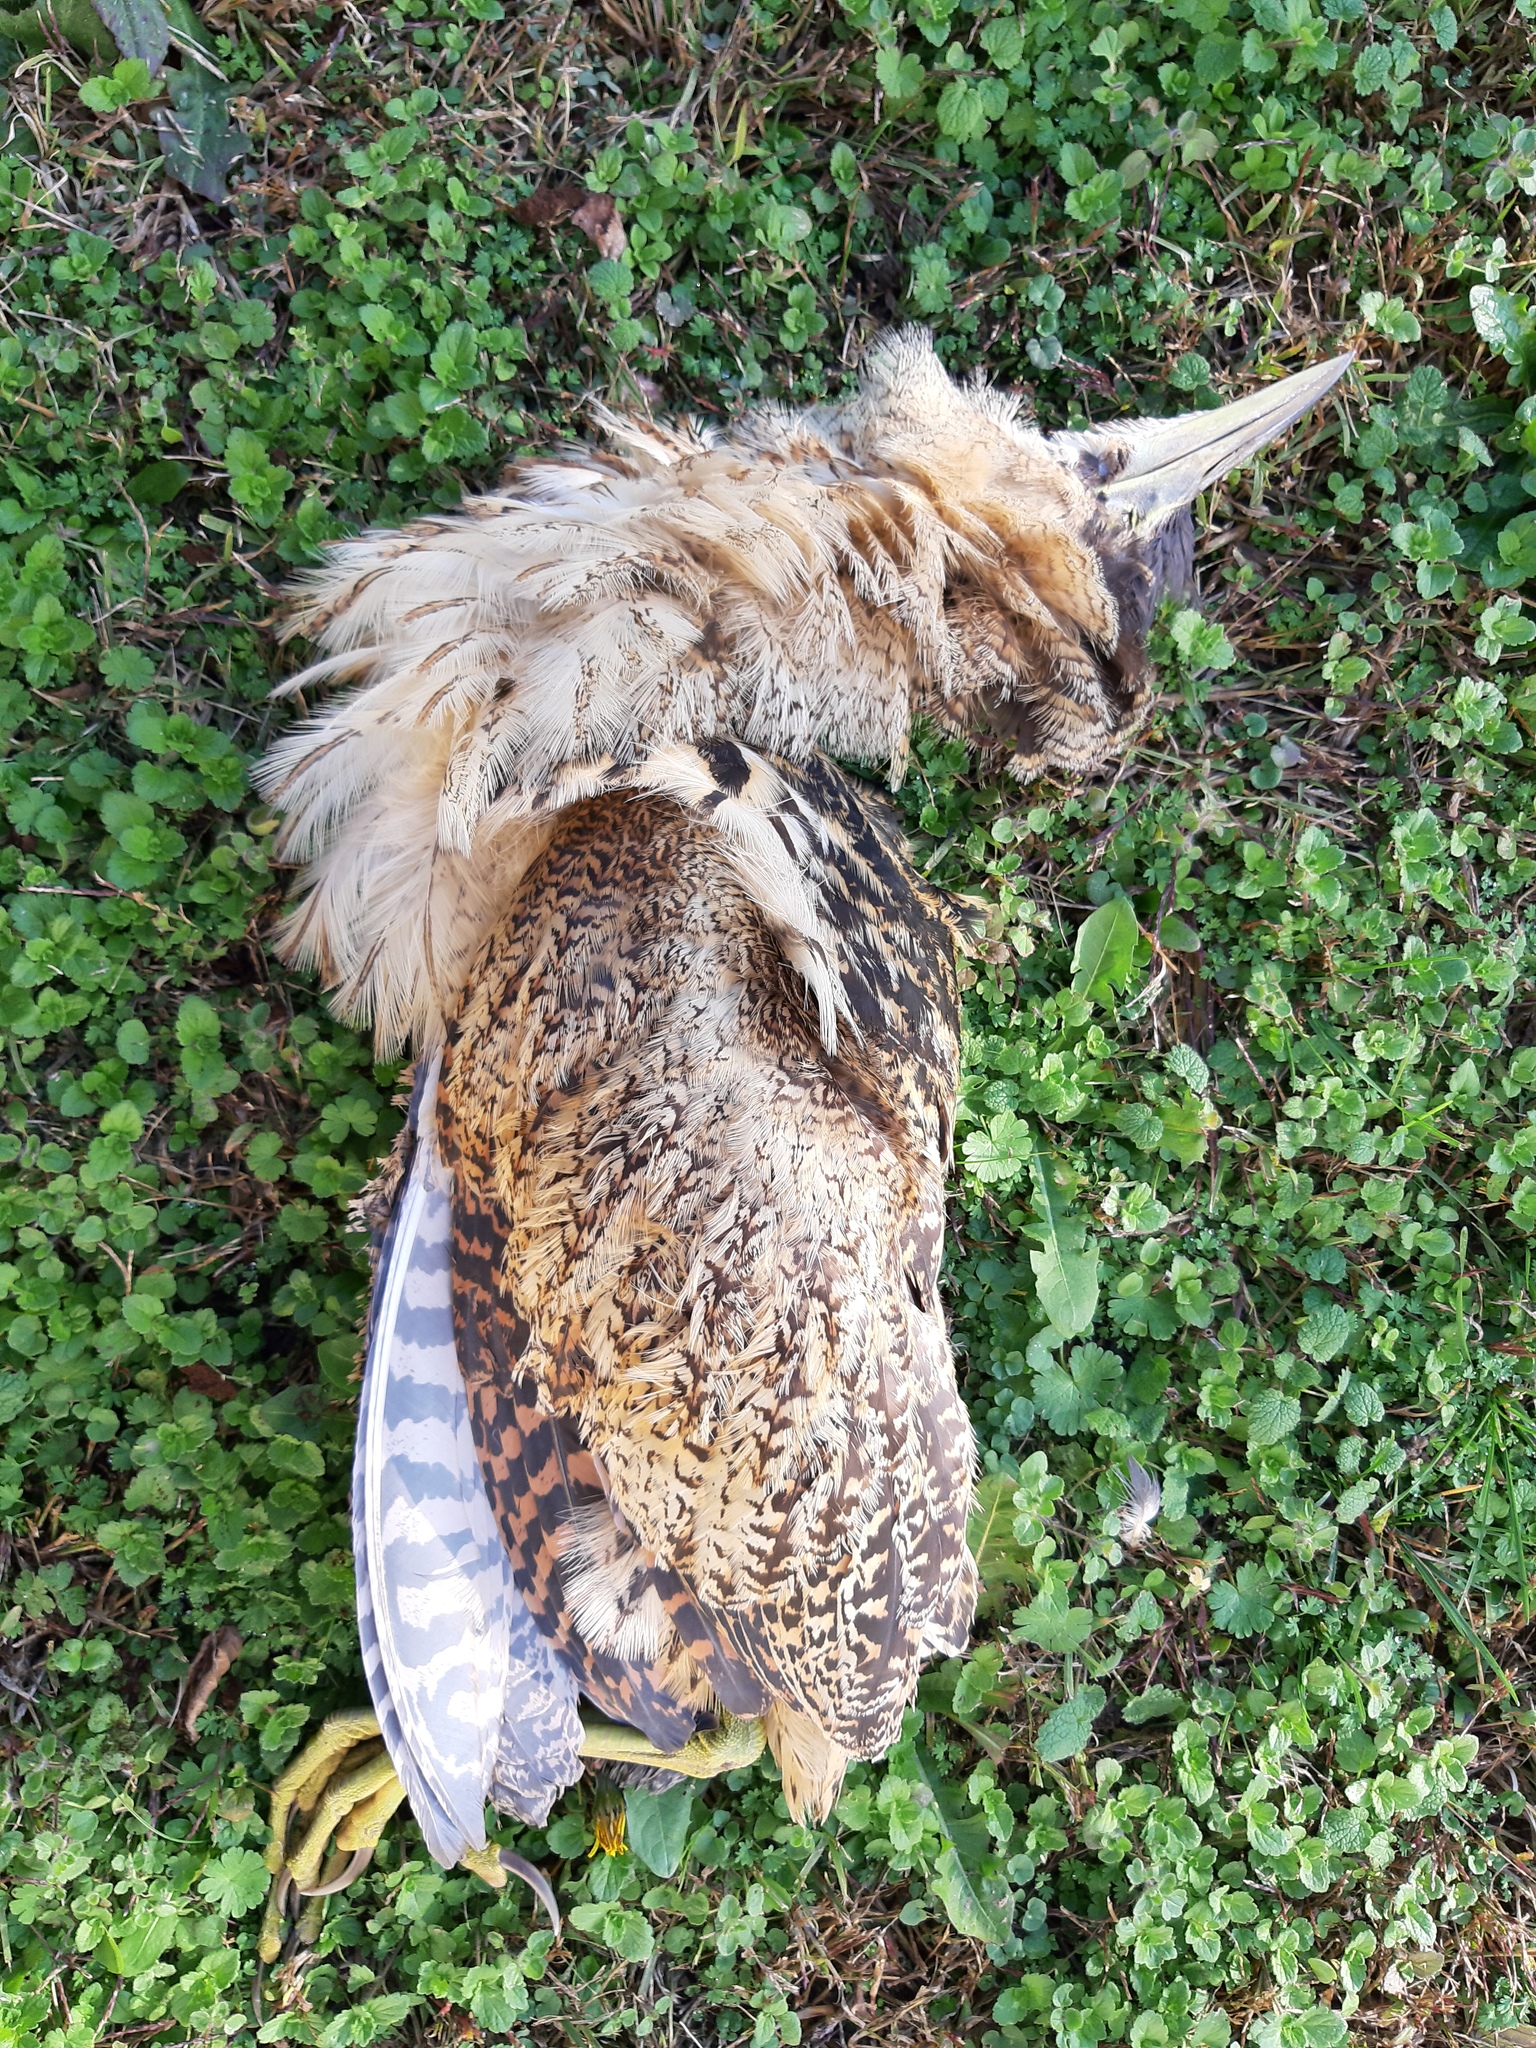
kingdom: Animalia
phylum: Chordata
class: Aves
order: Pelecaniformes
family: Ardeidae
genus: Botaurus
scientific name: Botaurus stellaris
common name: Eurasian bittern
